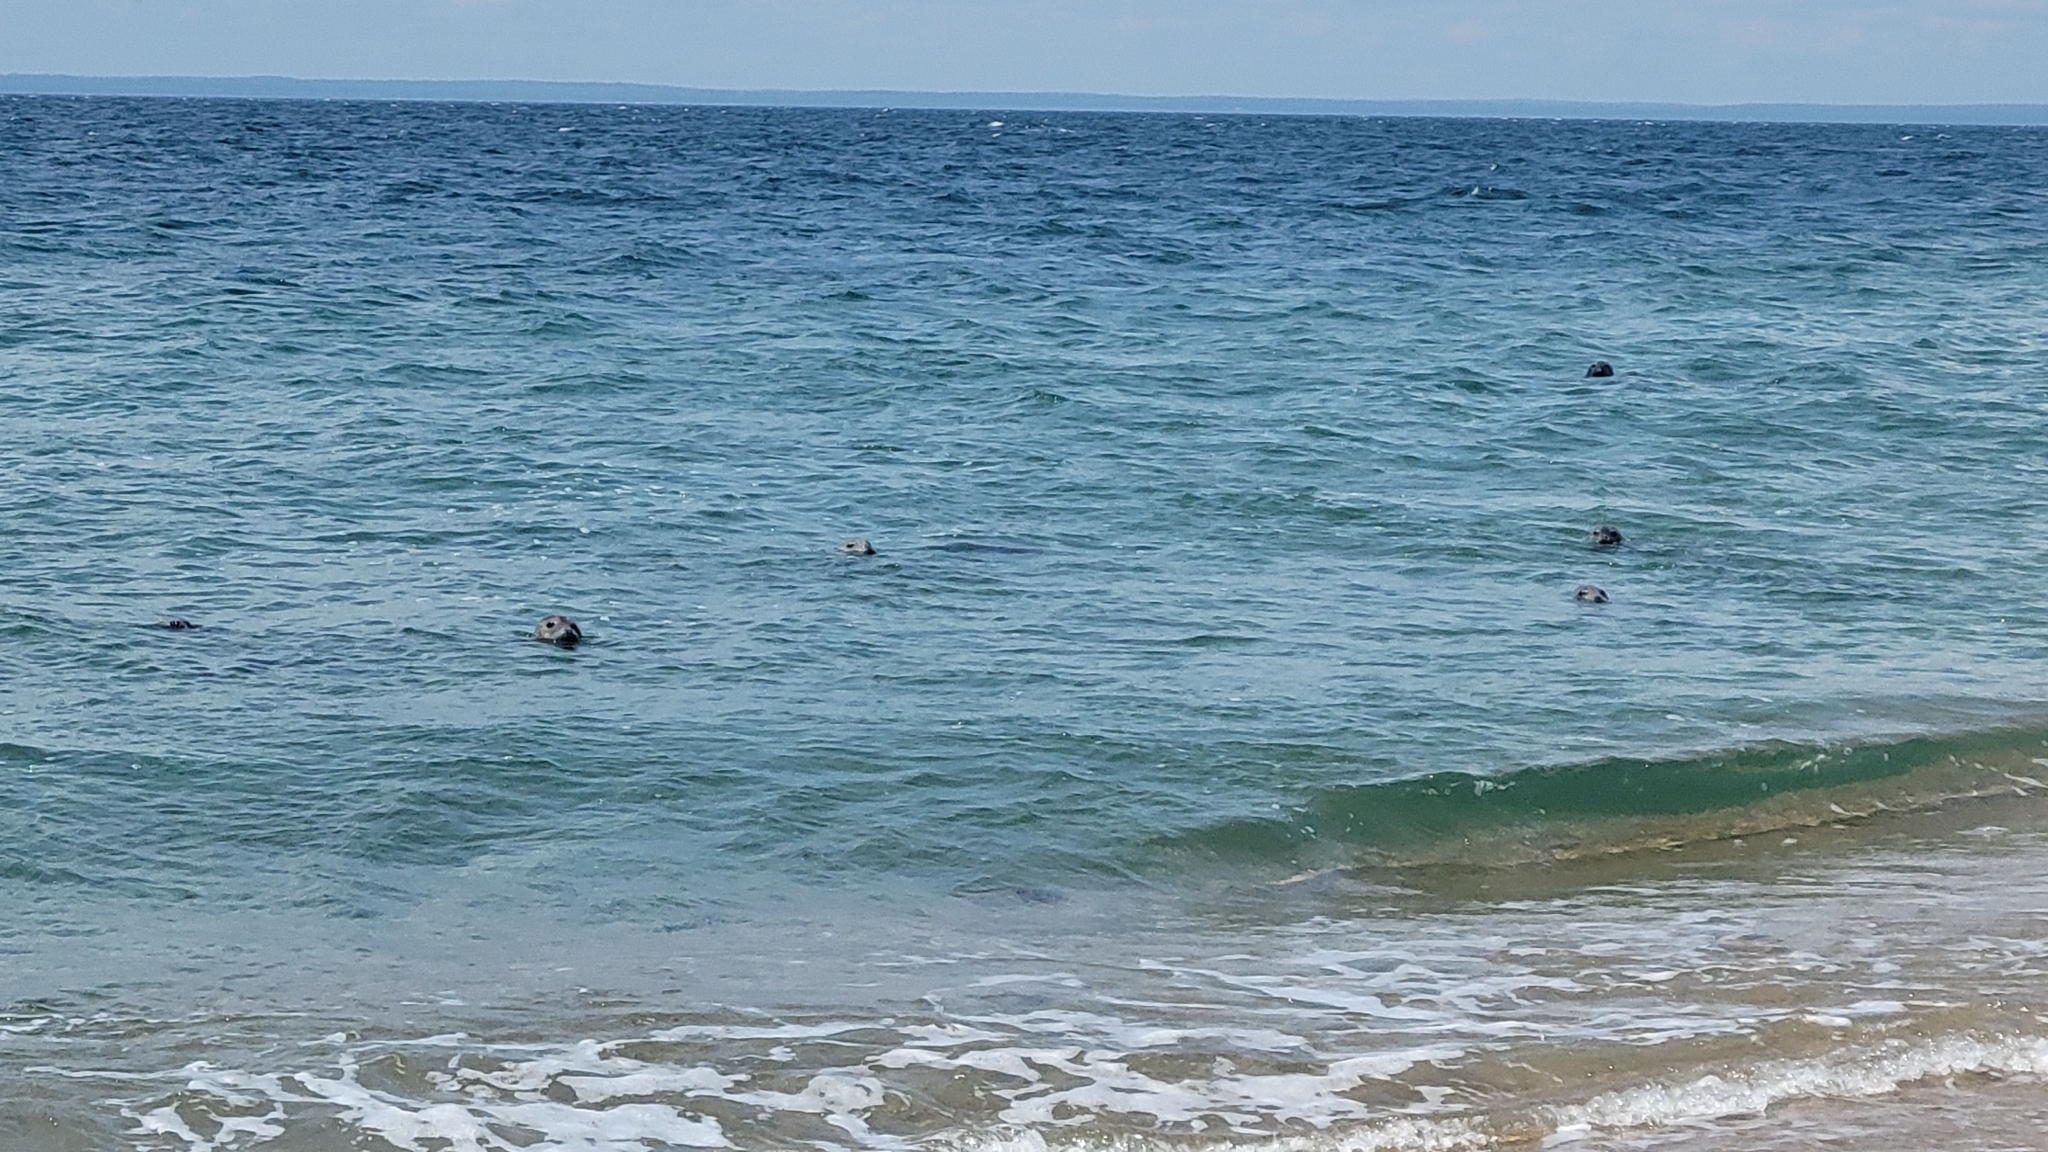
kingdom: Animalia
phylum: Chordata
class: Mammalia
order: Carnivora
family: Phocidae
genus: Halichoerus
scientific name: Halichoerus grypus
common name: Grey seal
